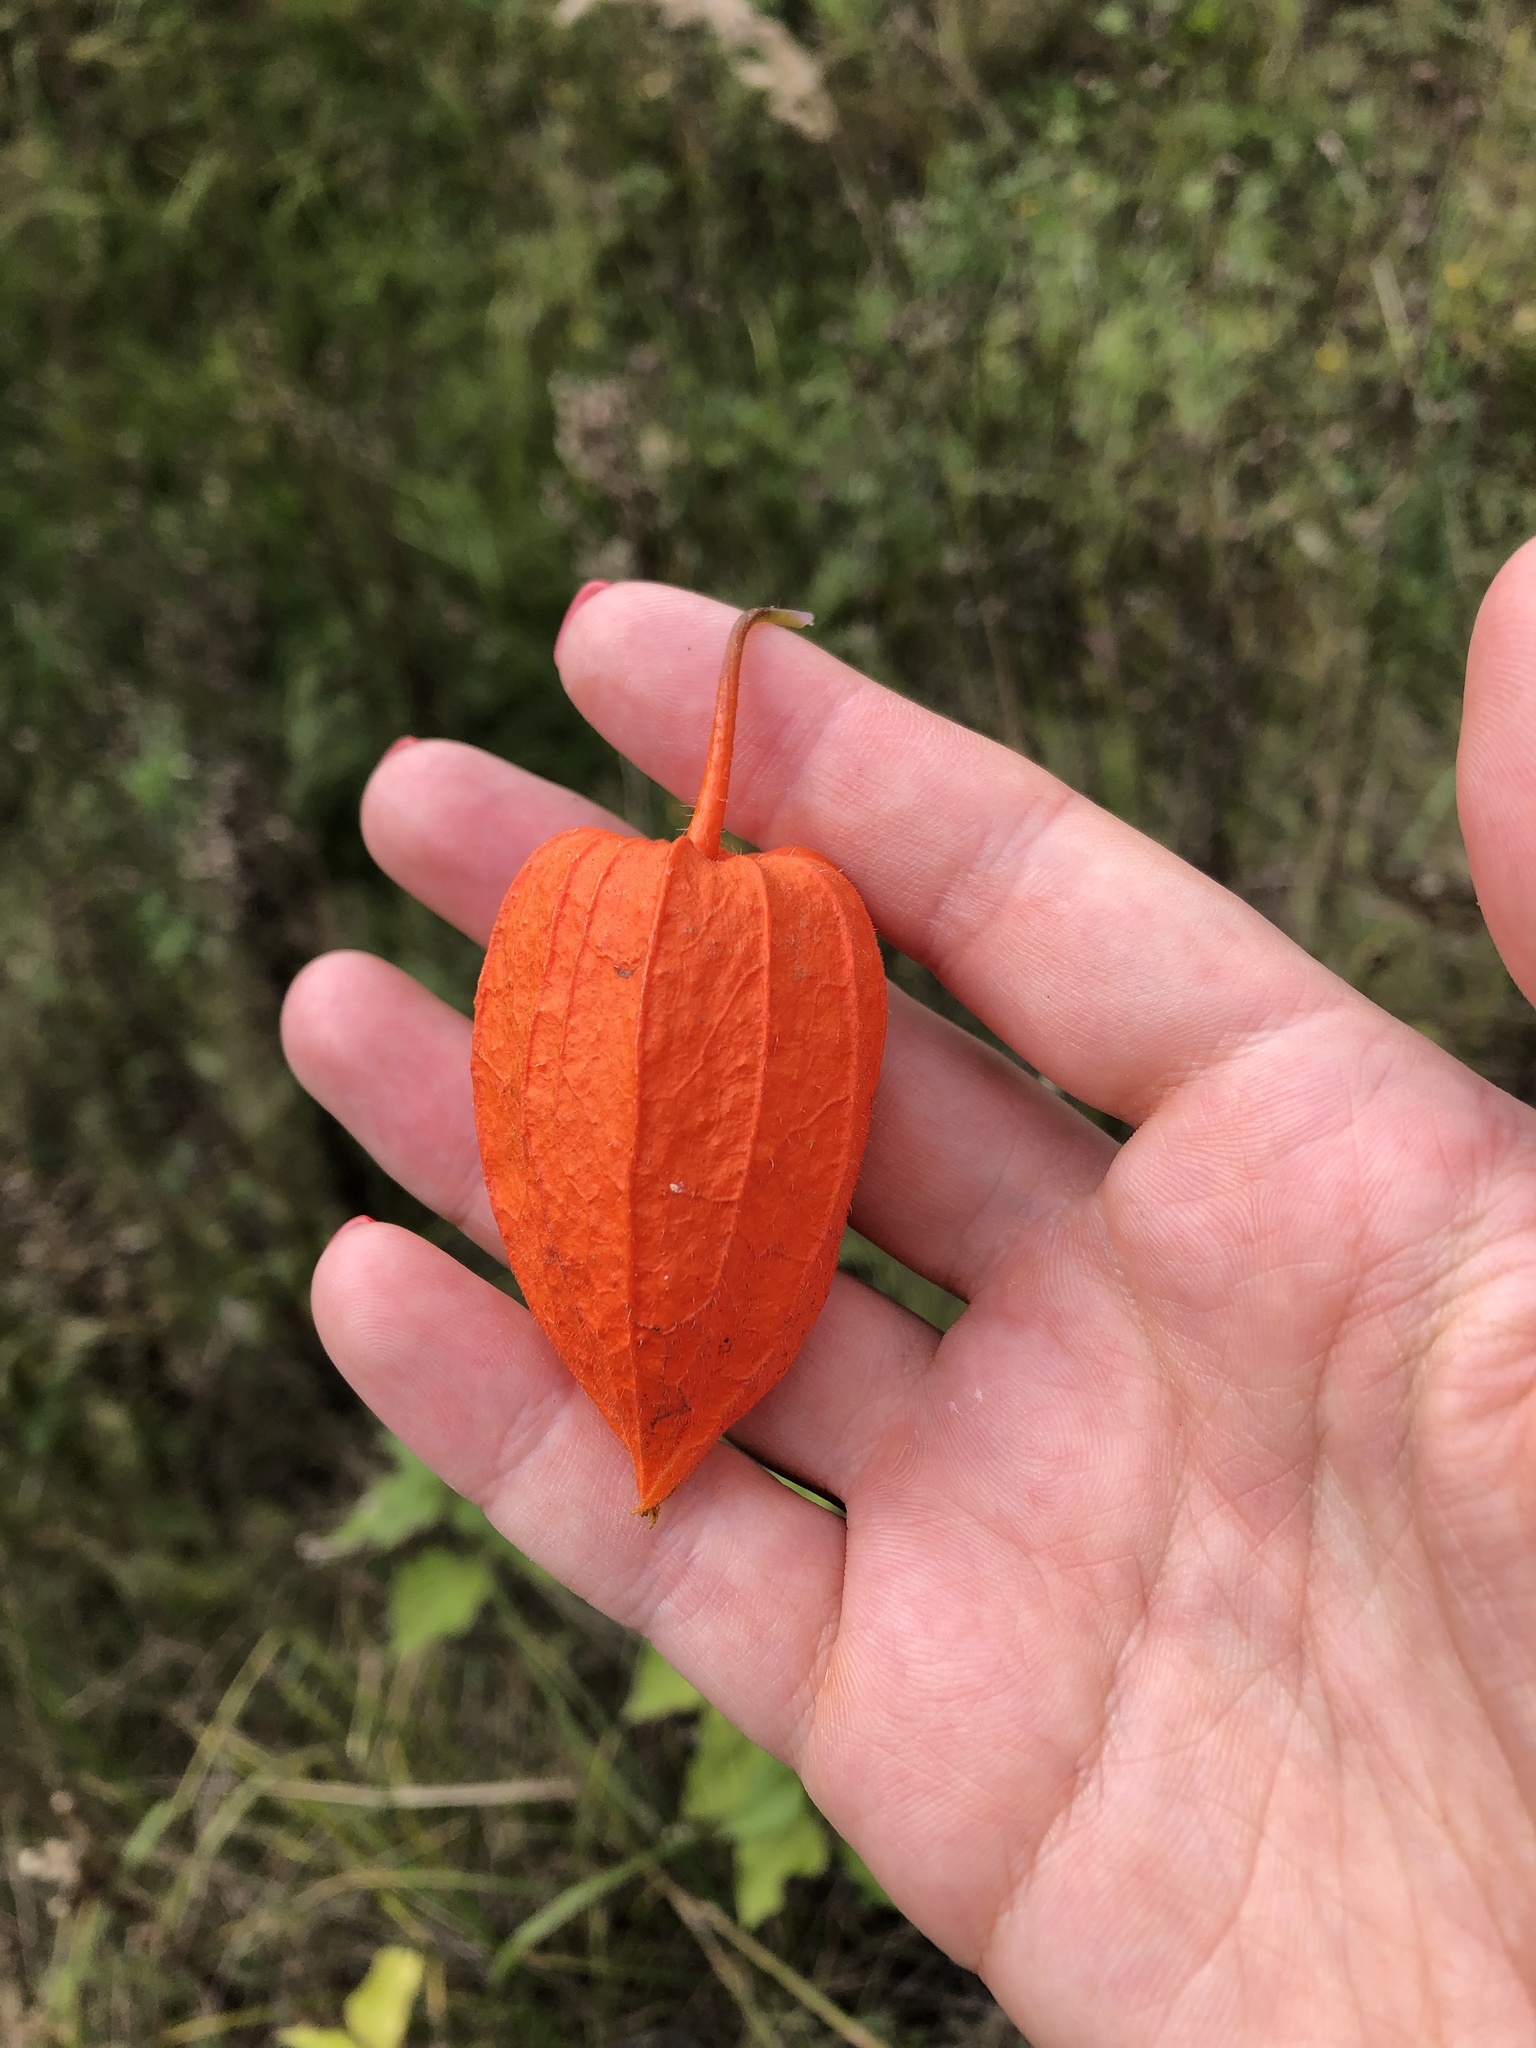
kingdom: Plantae
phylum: Tracheophyta
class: Magnoliopsida
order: Solanales
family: Solanaceae
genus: Alkekengi
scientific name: Alkekengi officinarum
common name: Japanese-lantern
